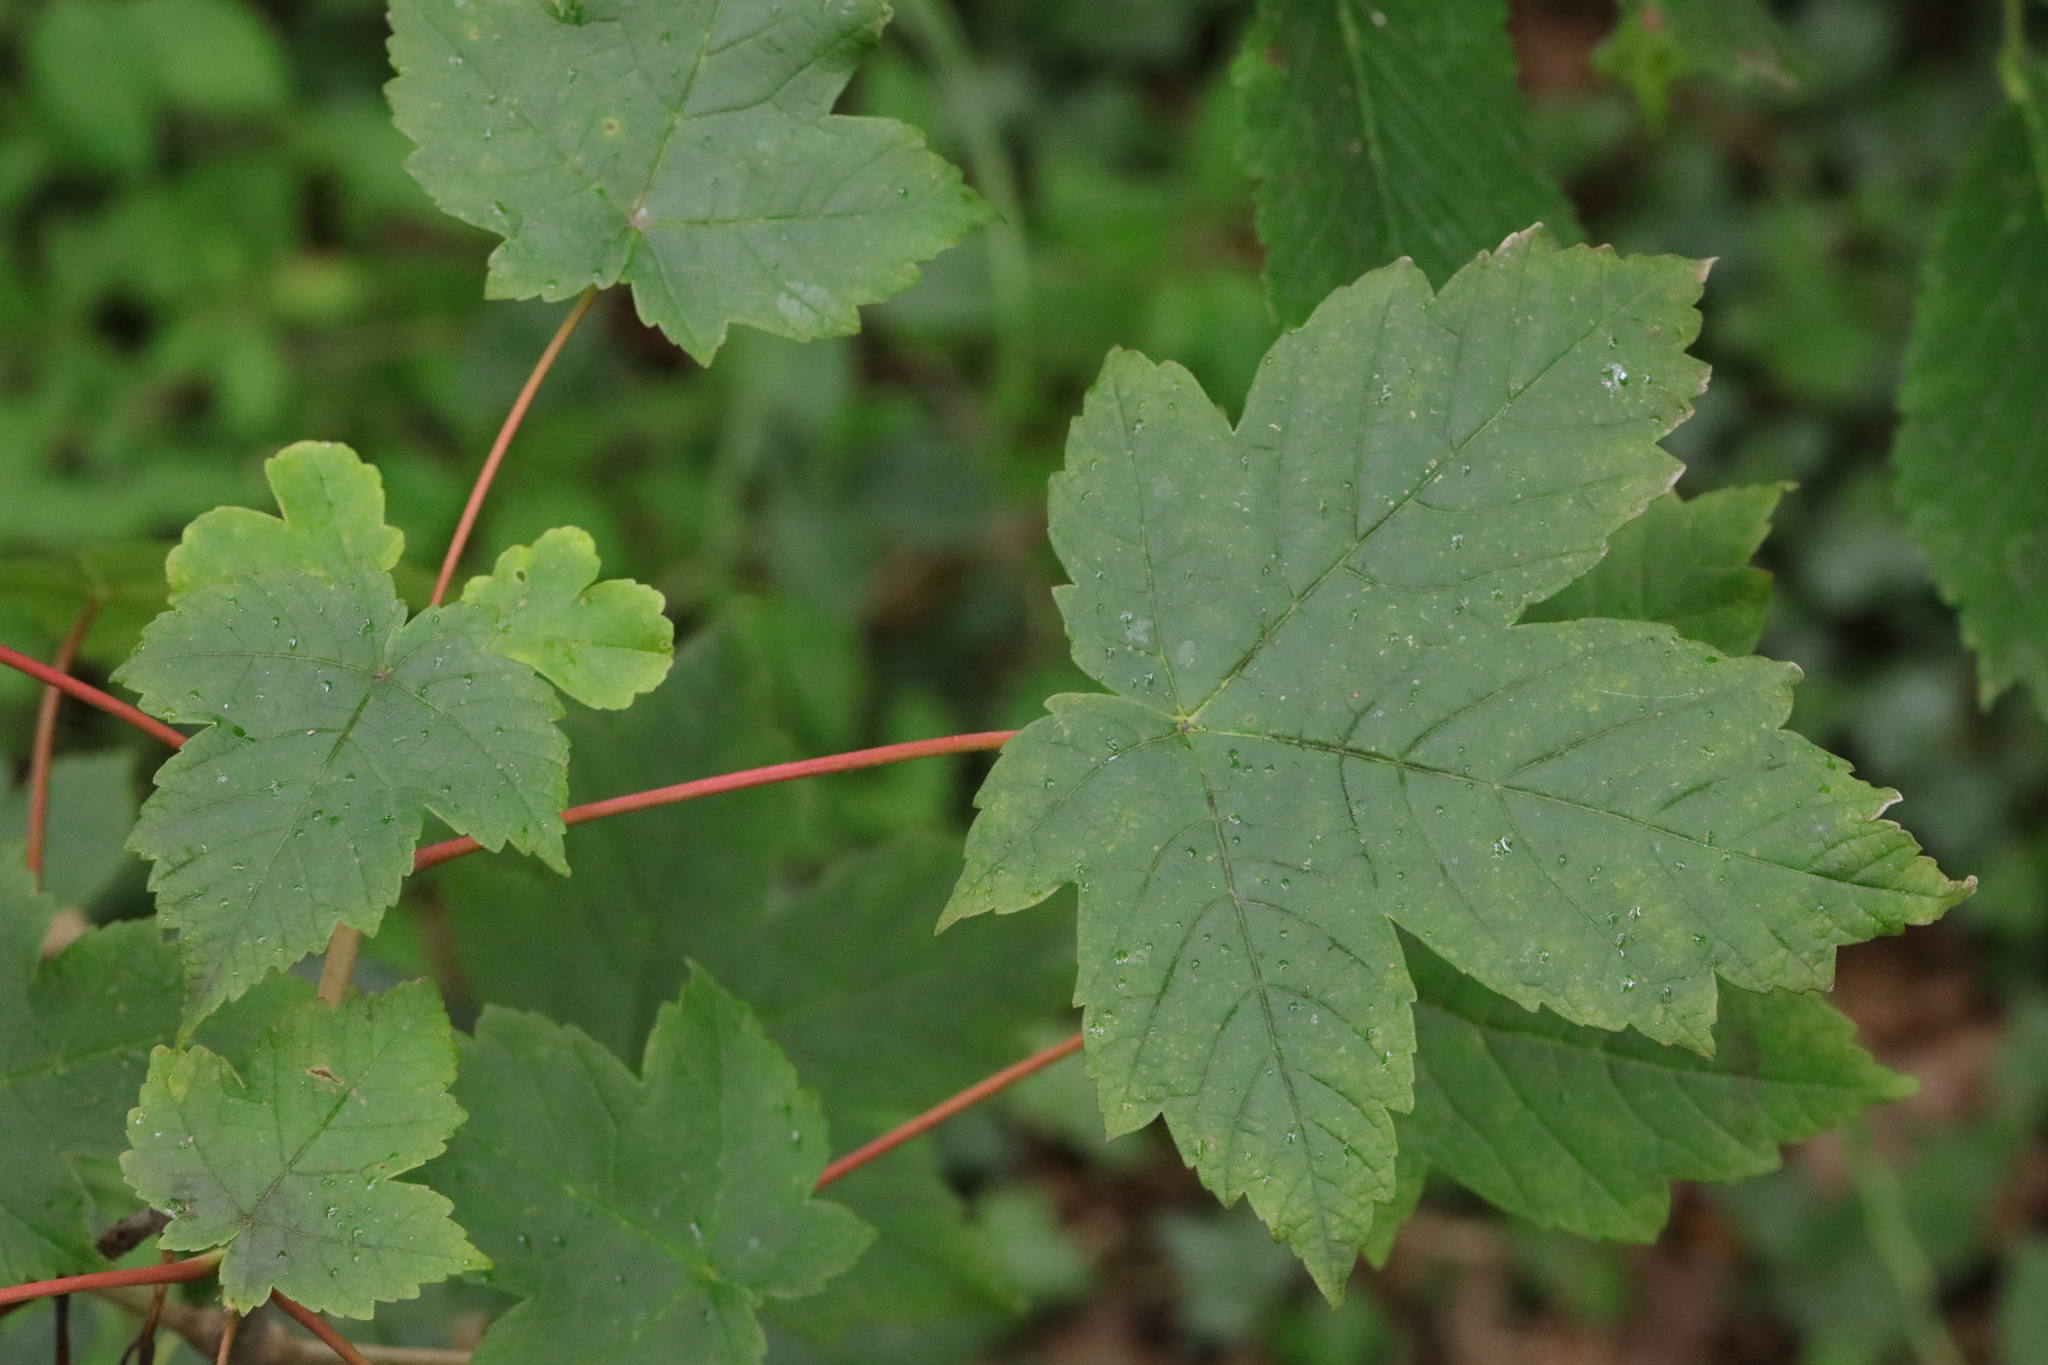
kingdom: Plantae
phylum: Tracheophyta
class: Magnoliopsida
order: Sapindales
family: Sapindaceae
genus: Acer
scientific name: Acer pseudoplatanus
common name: Sycamore
